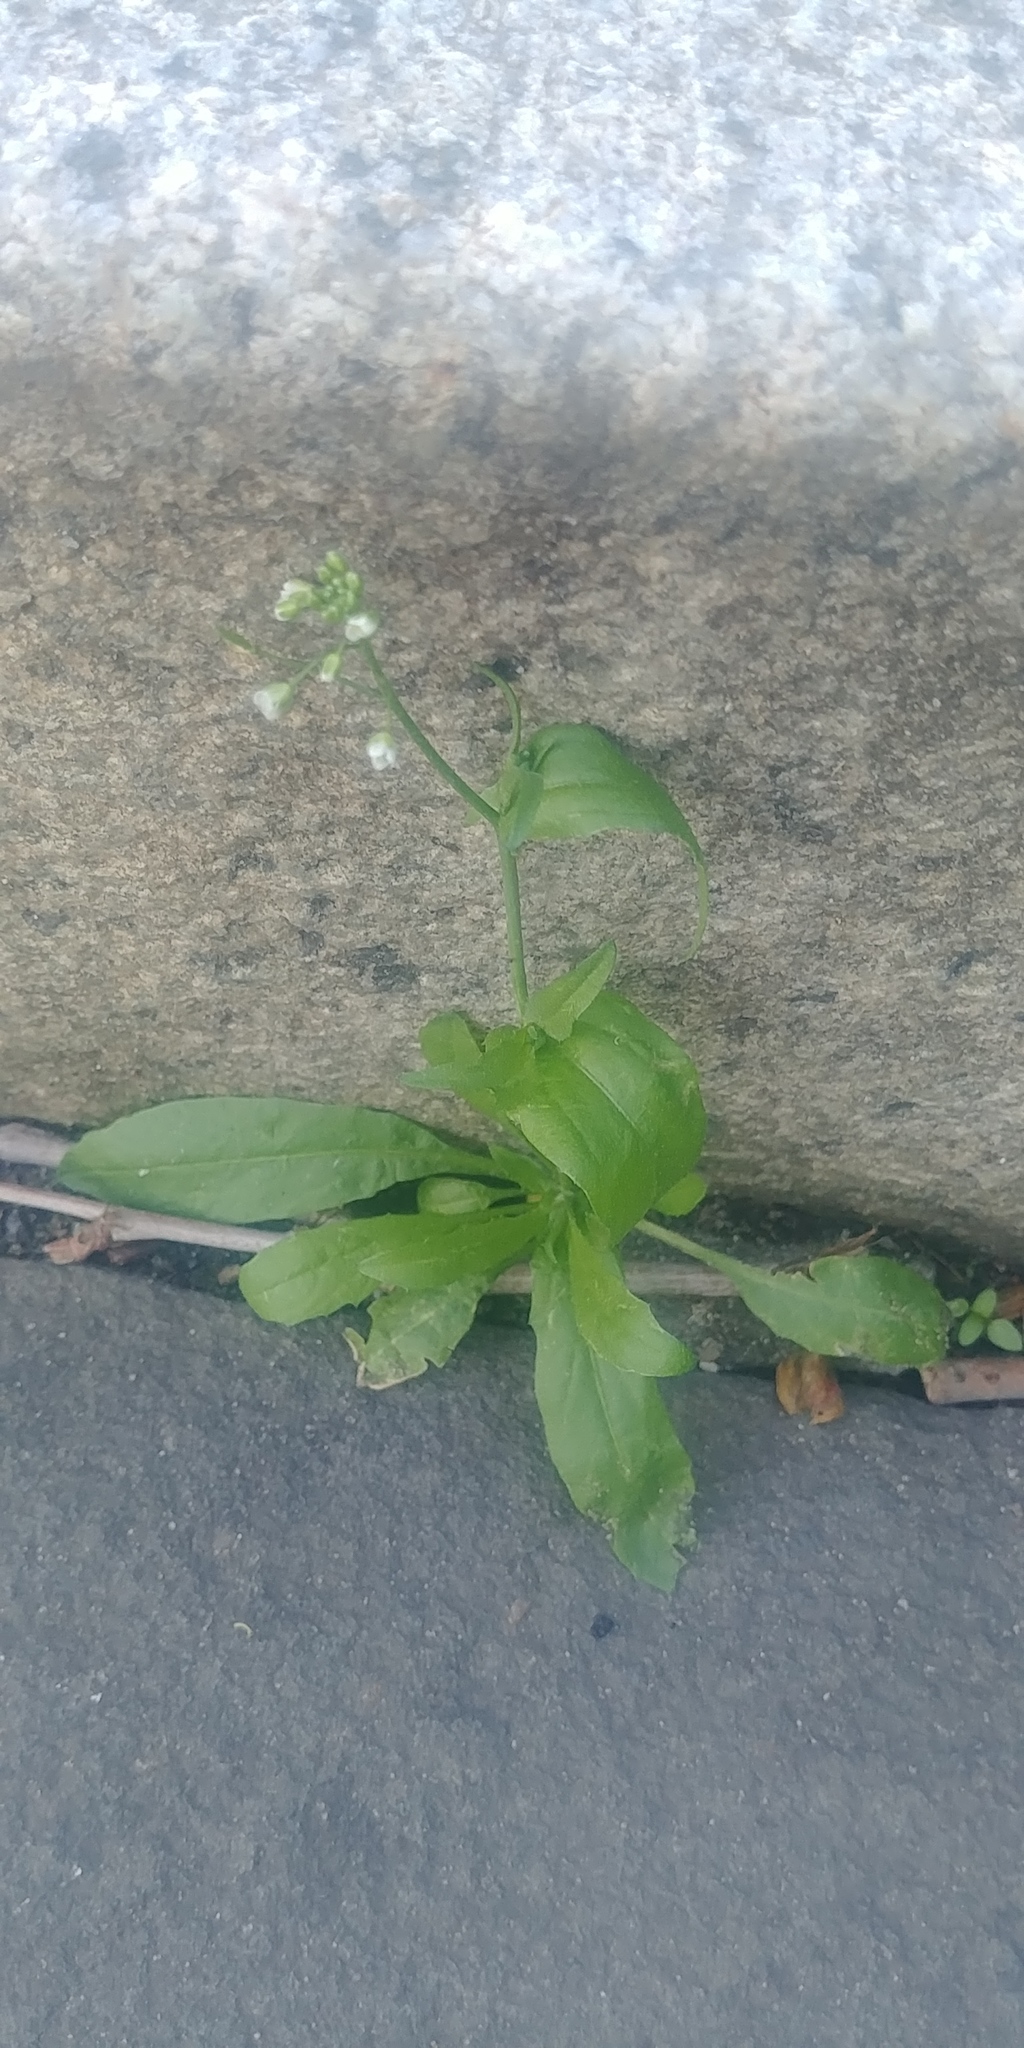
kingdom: Plantae
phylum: Tracheophyta
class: Magnoliopsida
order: Brassicales
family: Brassicaceae
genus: Capsella
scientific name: Capsella bursa-pastoris
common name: Shepherd's purse
